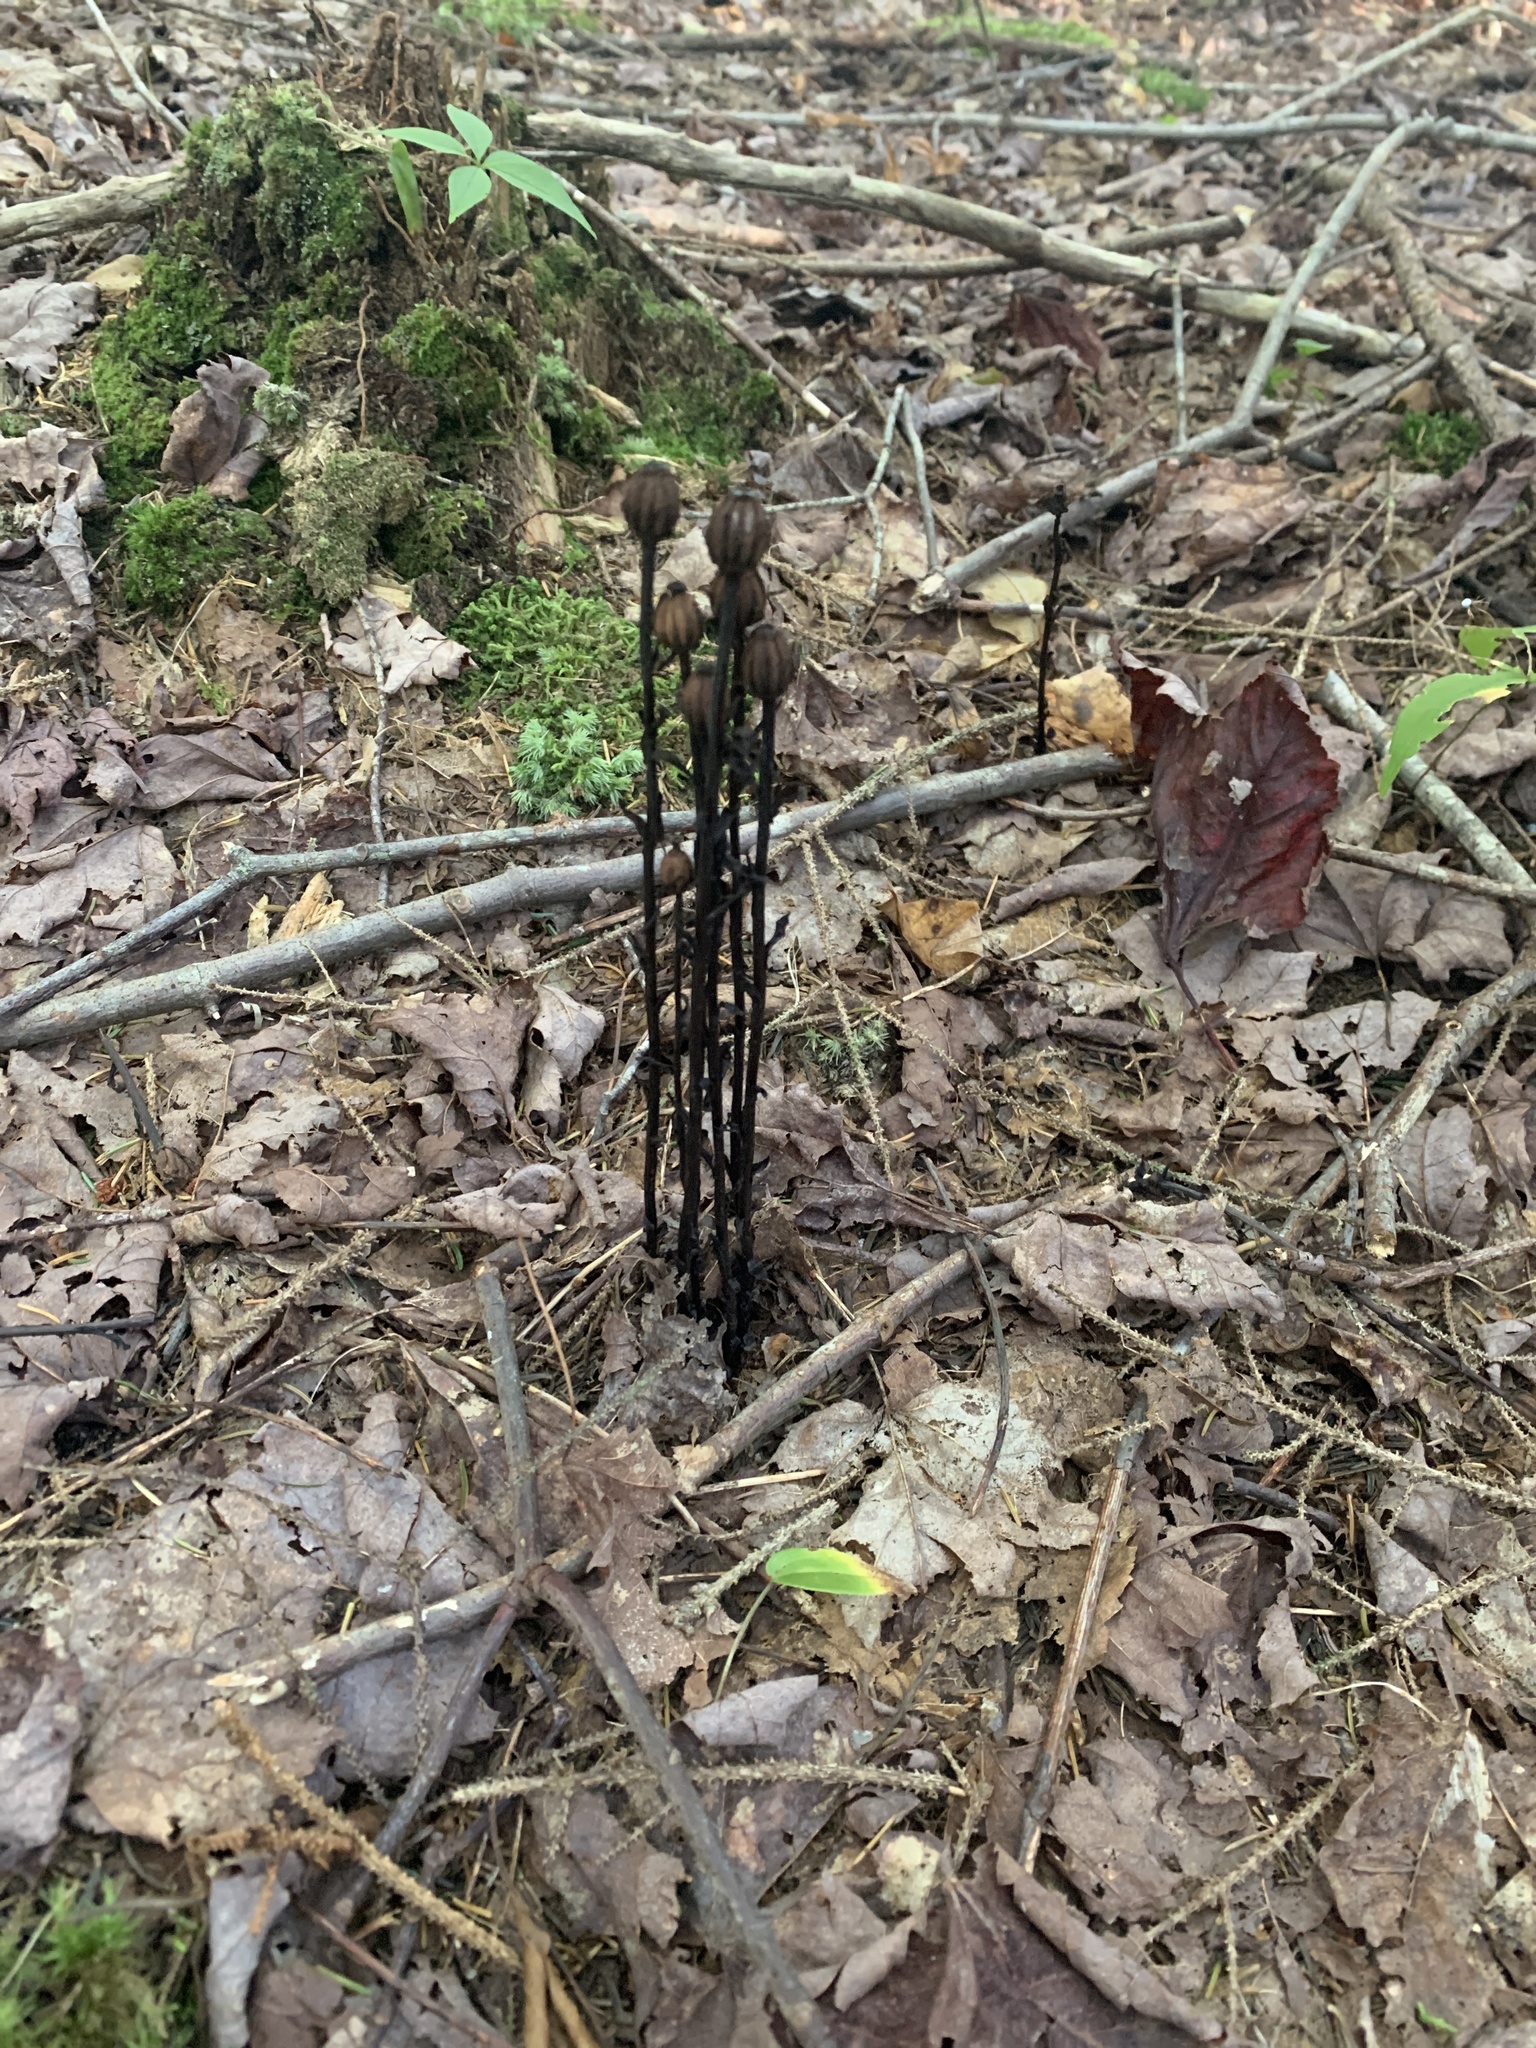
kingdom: Plantae
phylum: Tracheophyta
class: Magnoliopsida
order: Ericales
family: Ericaceae
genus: Monotropa
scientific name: Monotropa uniflora
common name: Convulsion root
